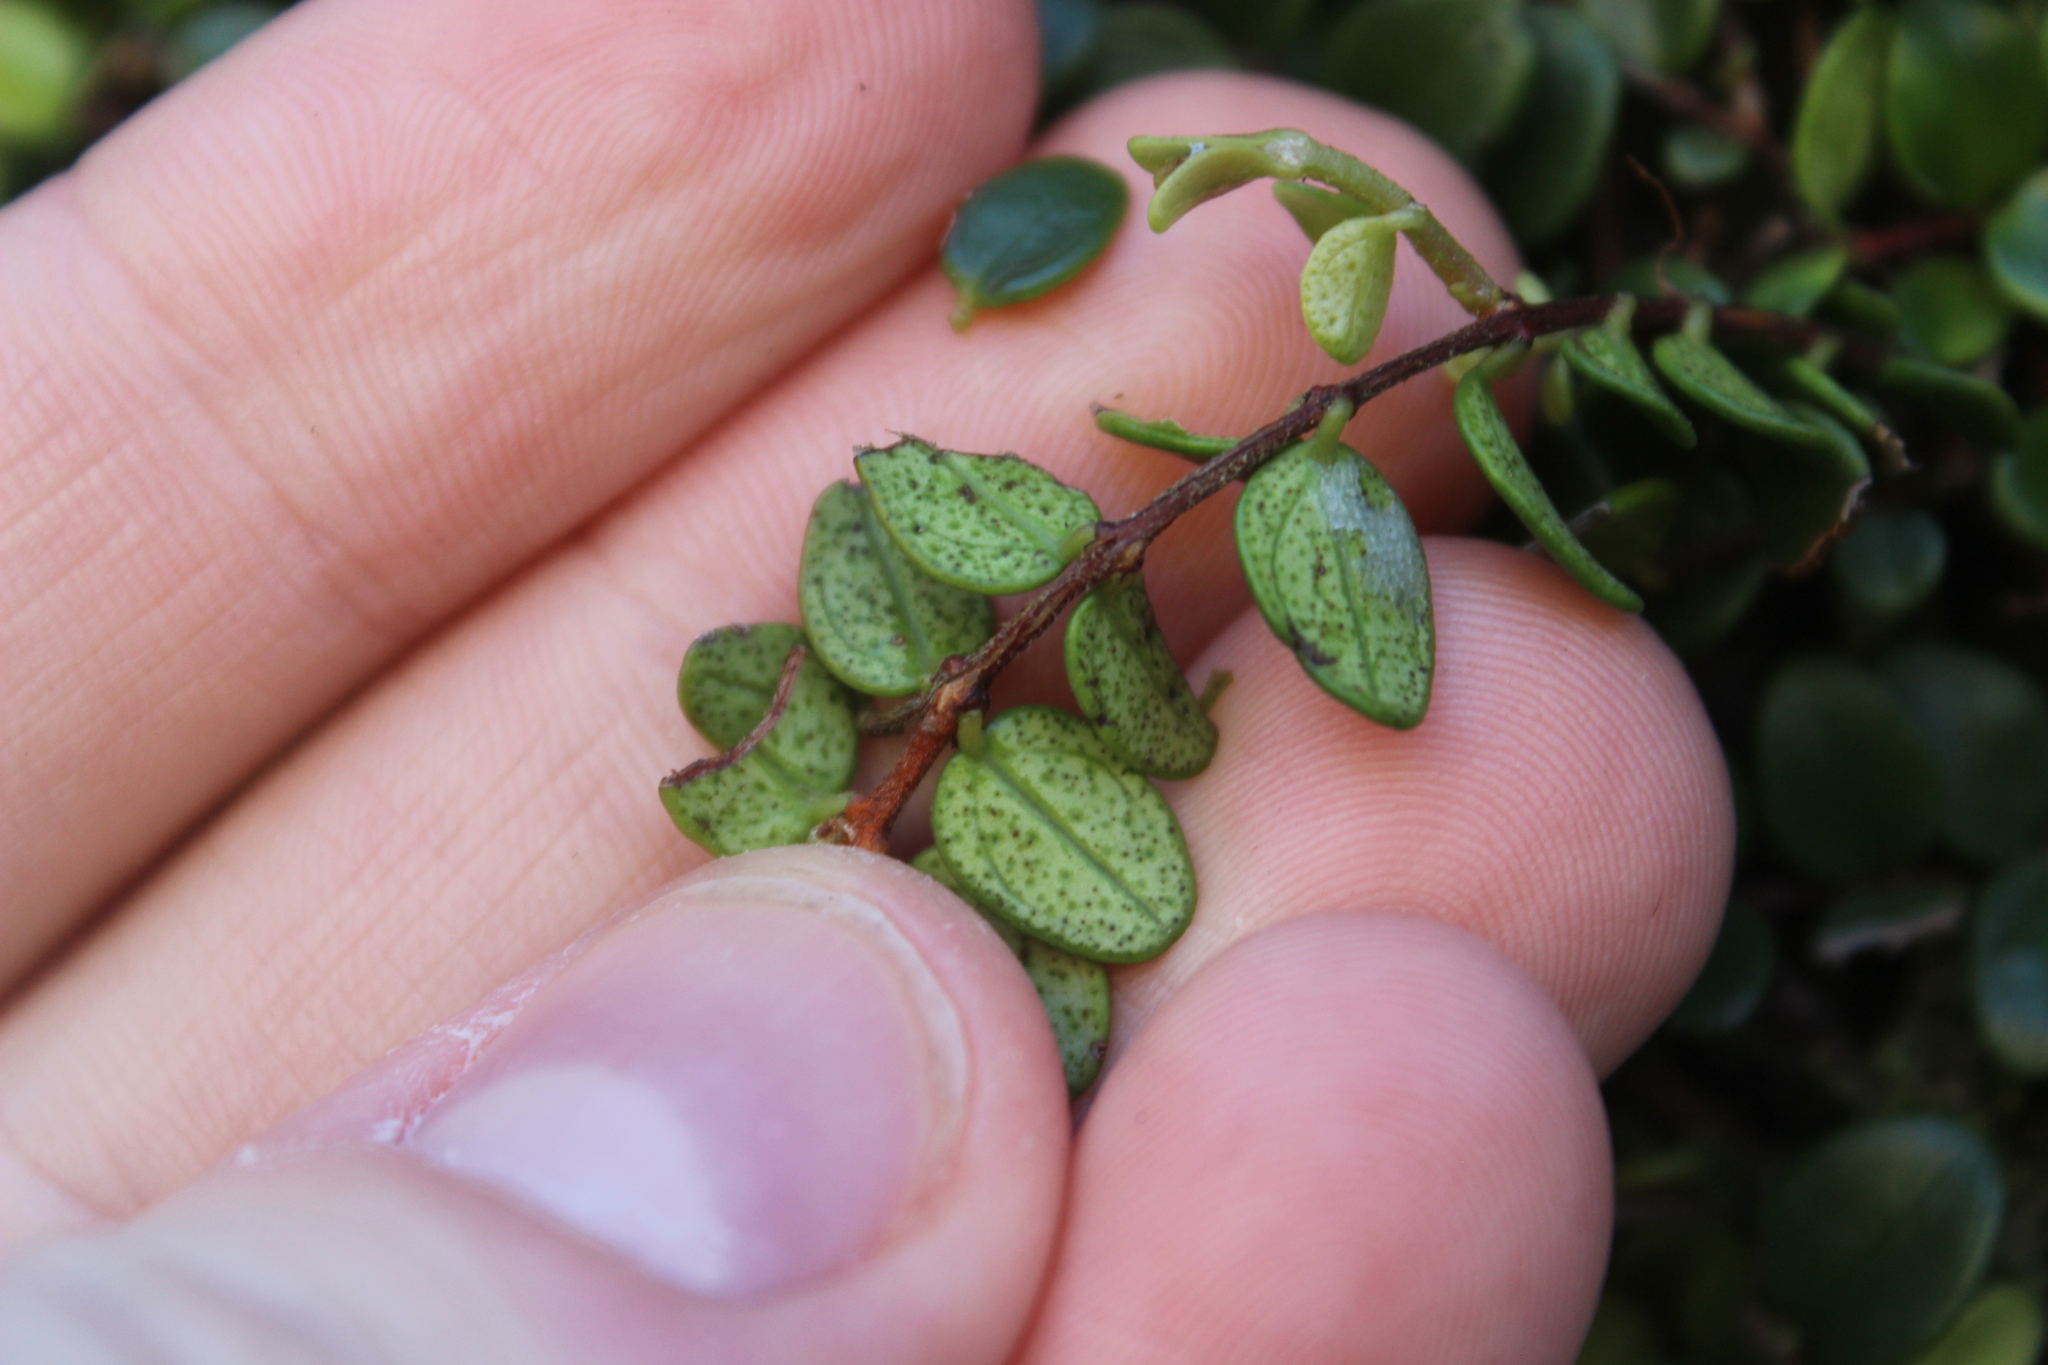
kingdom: Plantae
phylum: Tracheophyta
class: Magnoliopsida
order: Myrtales
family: Myrtaceae
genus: Metrosideros
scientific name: Metrosideros perforata
